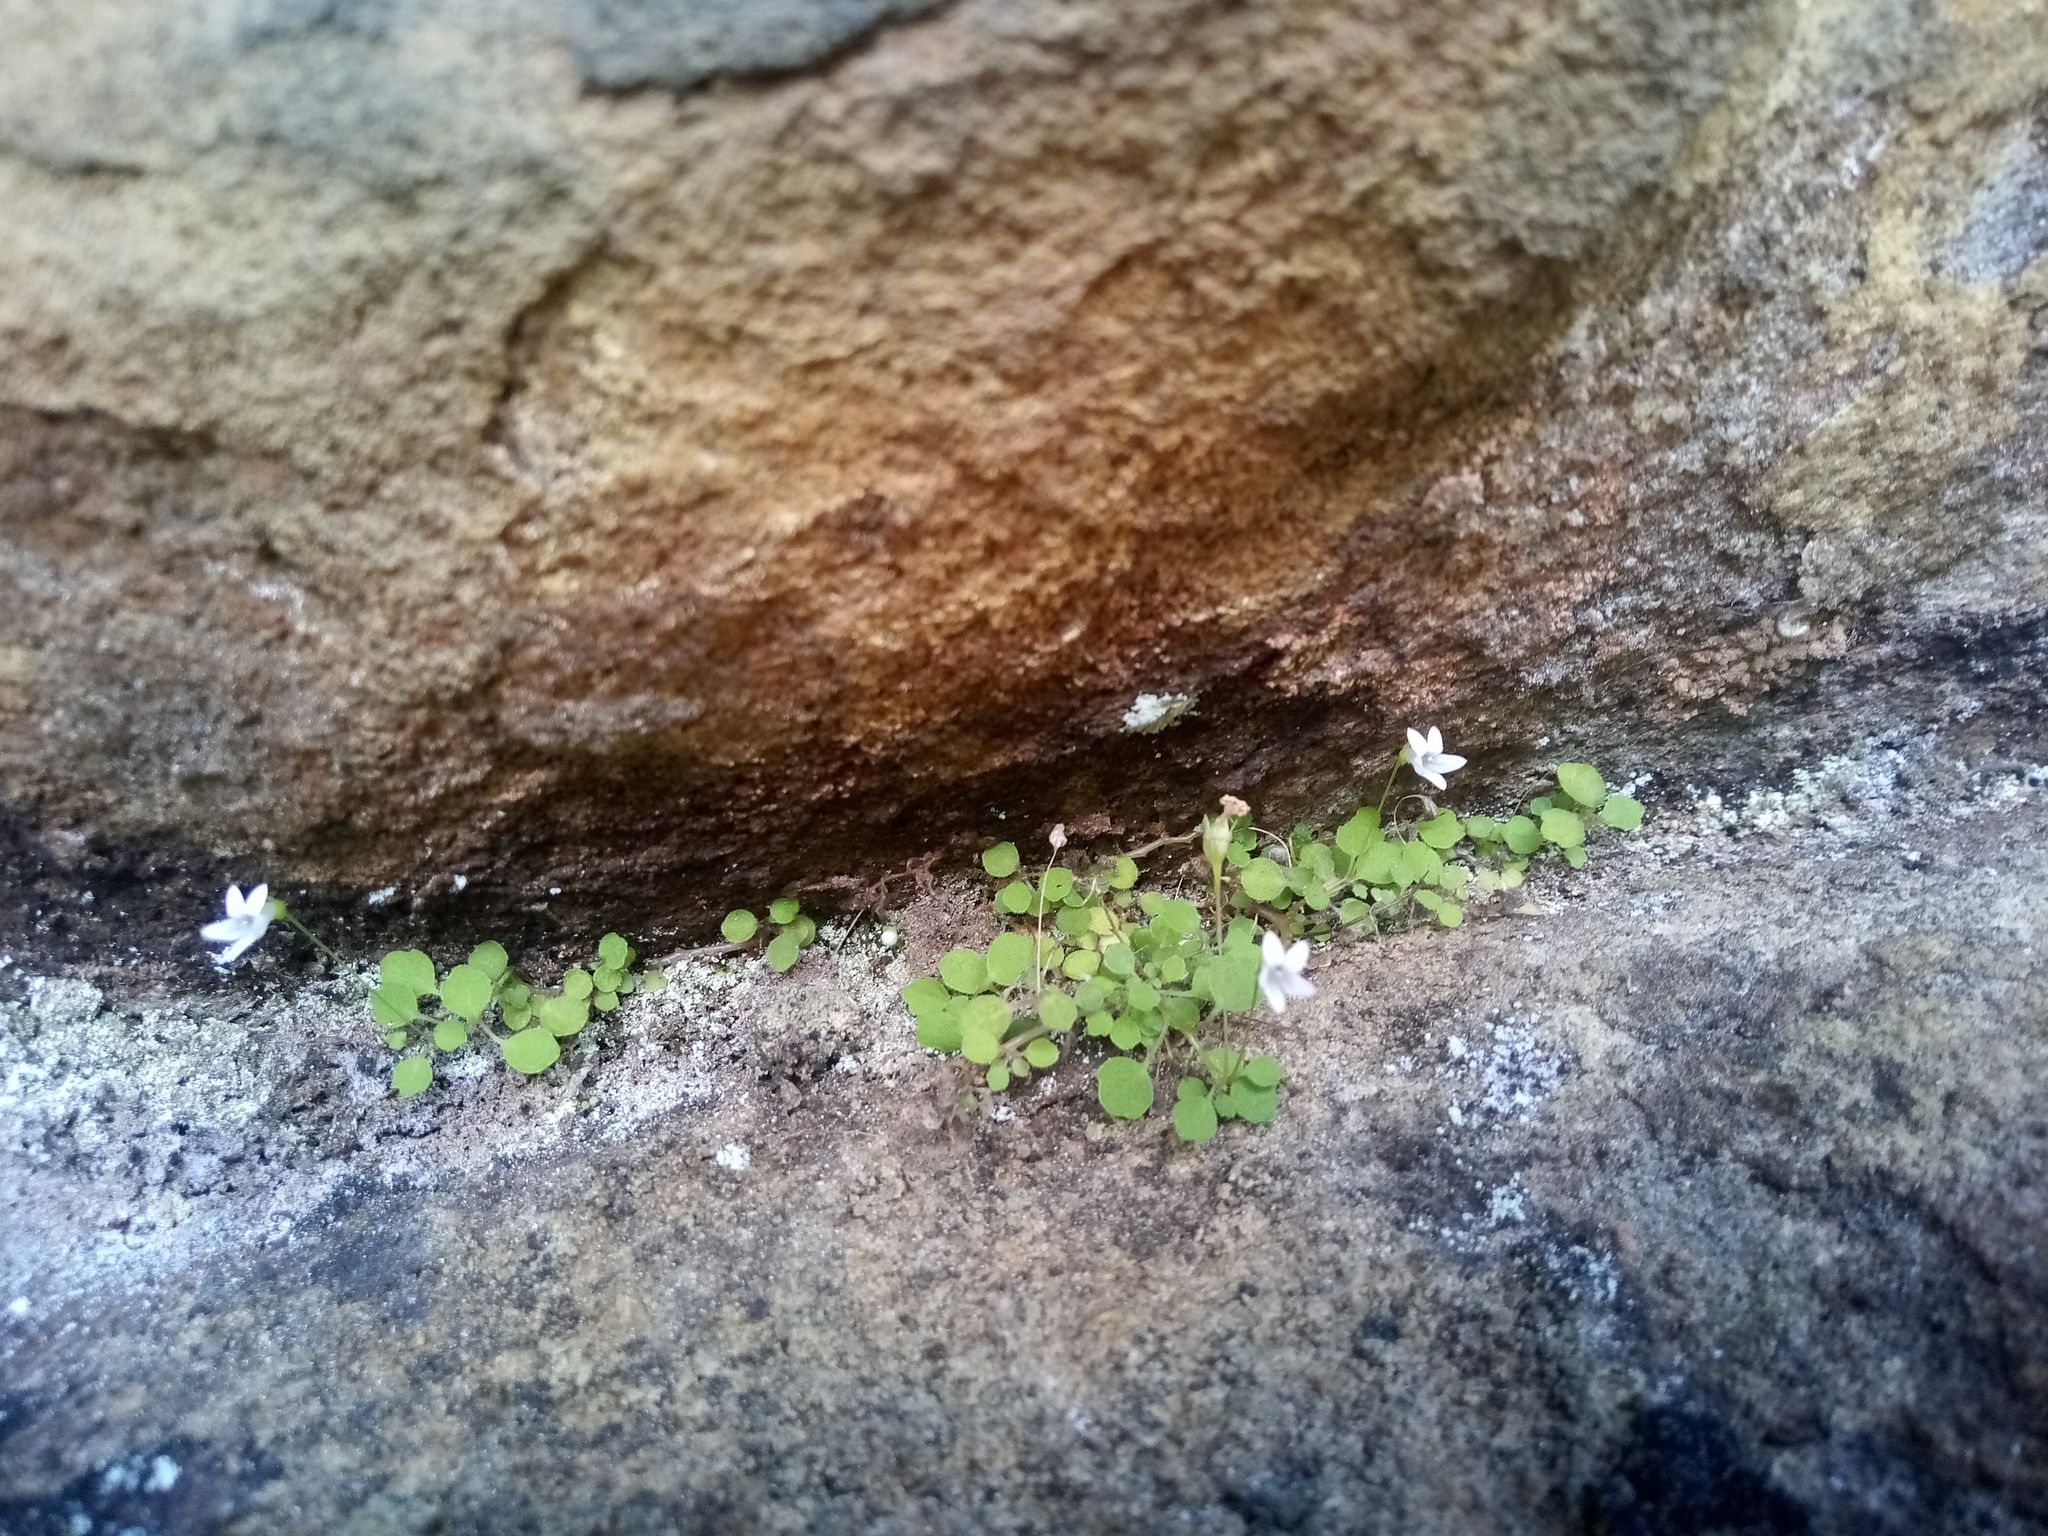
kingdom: Plantae
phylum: Tracheophyta
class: Magnoliopsida
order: Asterales
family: Campanulaceae
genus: Wimmerella
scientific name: Wimmerella pygmaea
